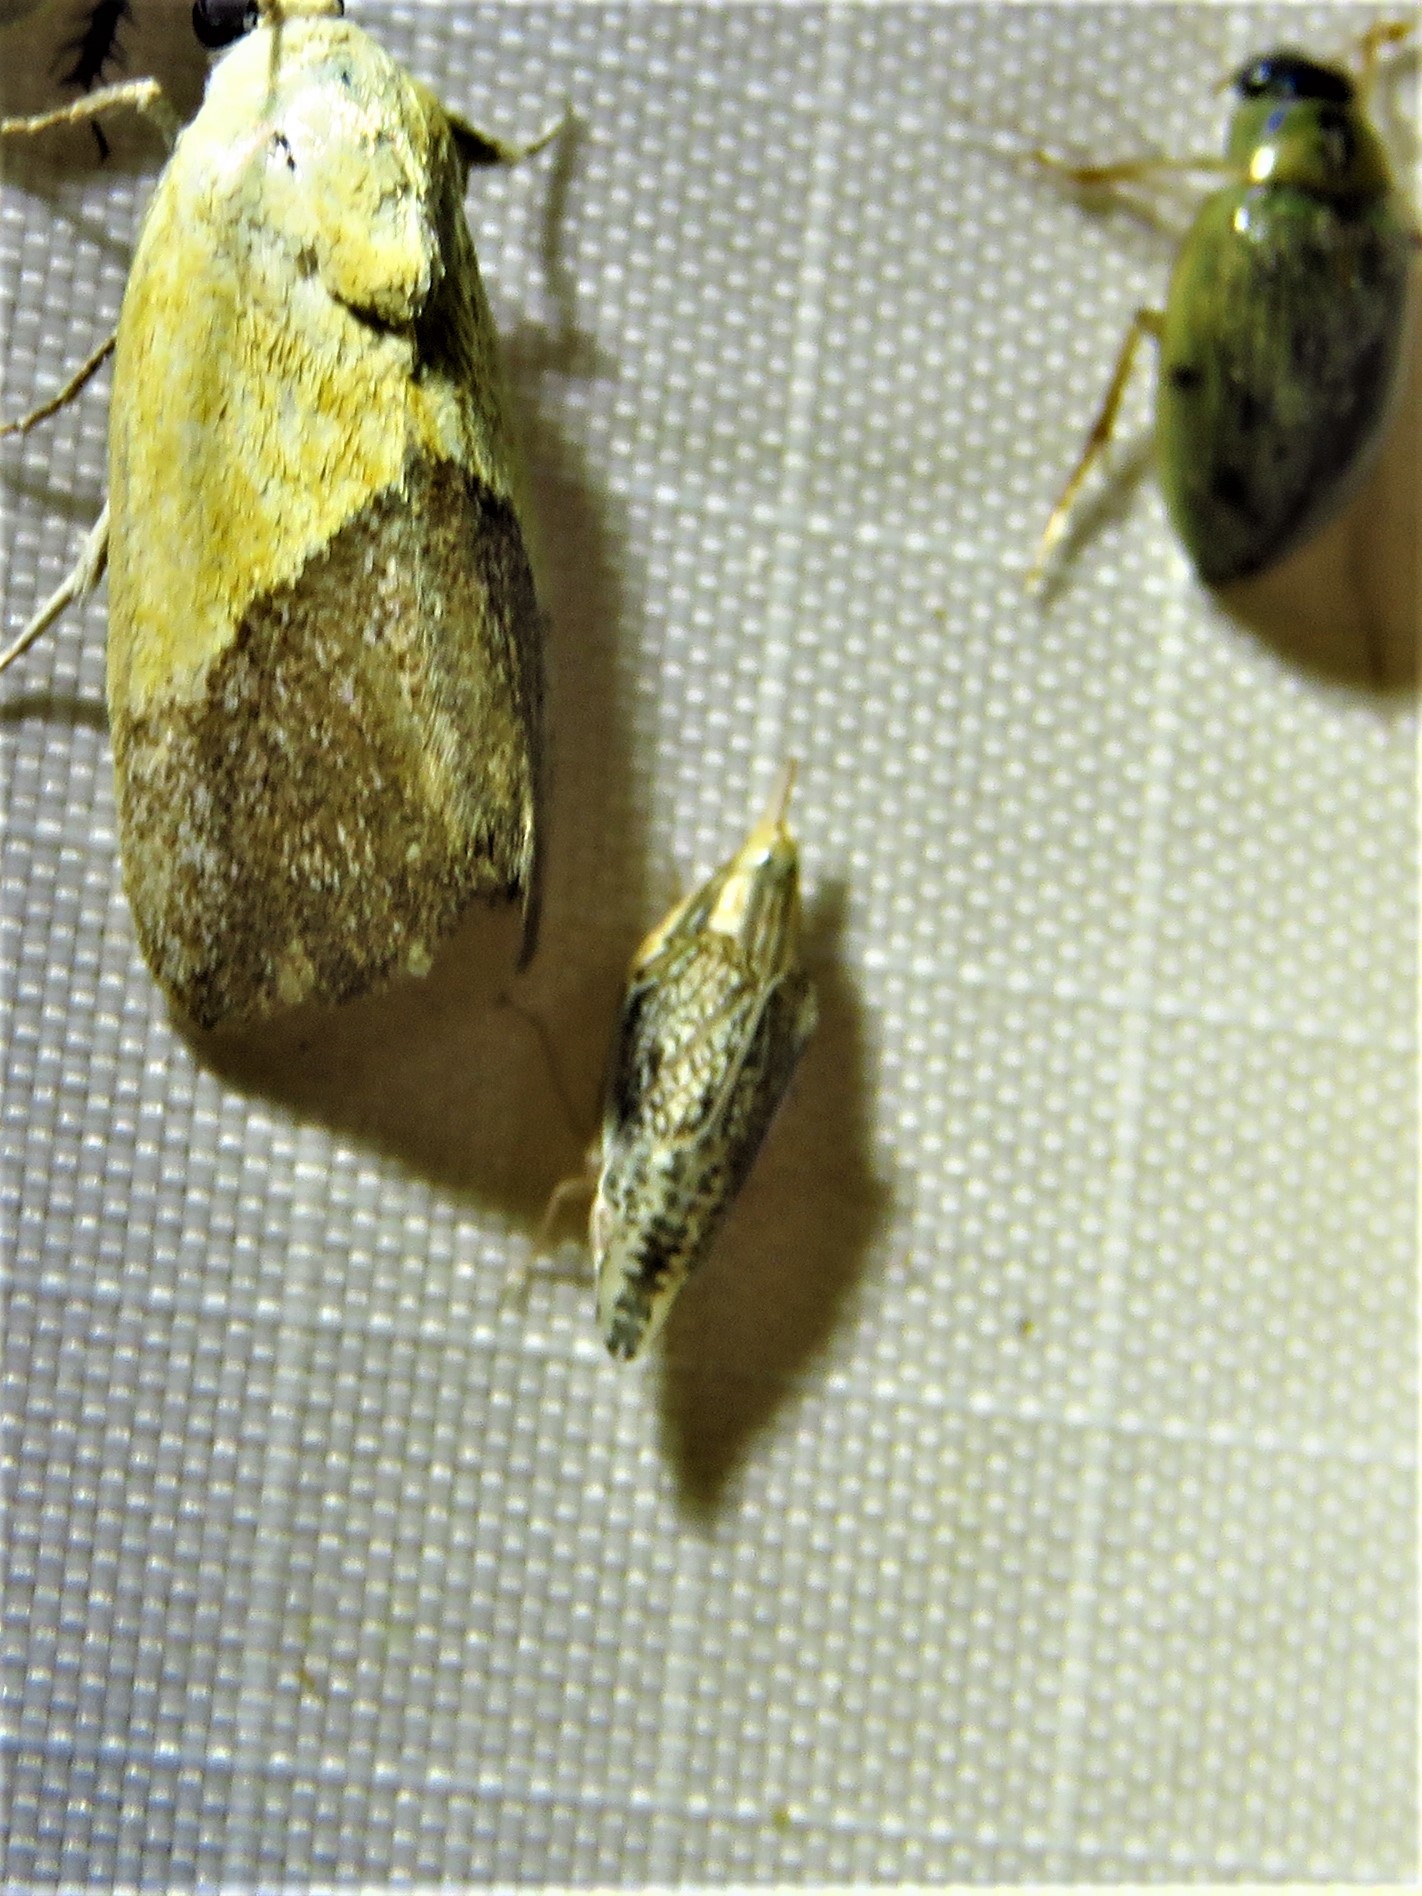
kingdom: Animalia
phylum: Arthropoda
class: Insecta
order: Hemiptera
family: Cicadellidae
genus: Dicyphonia
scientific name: Dicyphonia ornata
